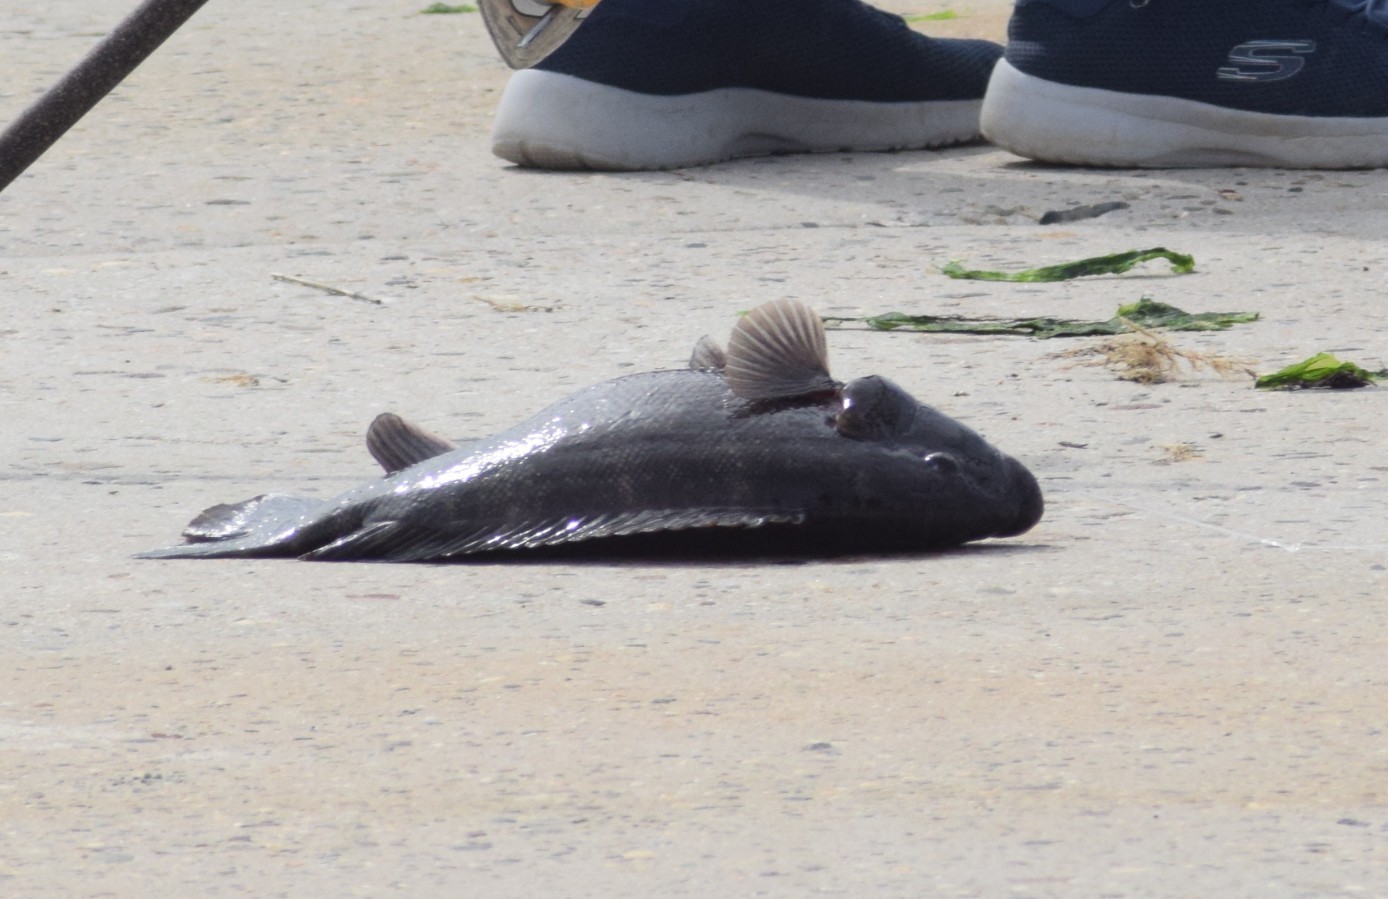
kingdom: Animalia
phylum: Chordata
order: Perciformes
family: Labridae
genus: Tautoga
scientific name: Tautoga onitis
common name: Tautog
